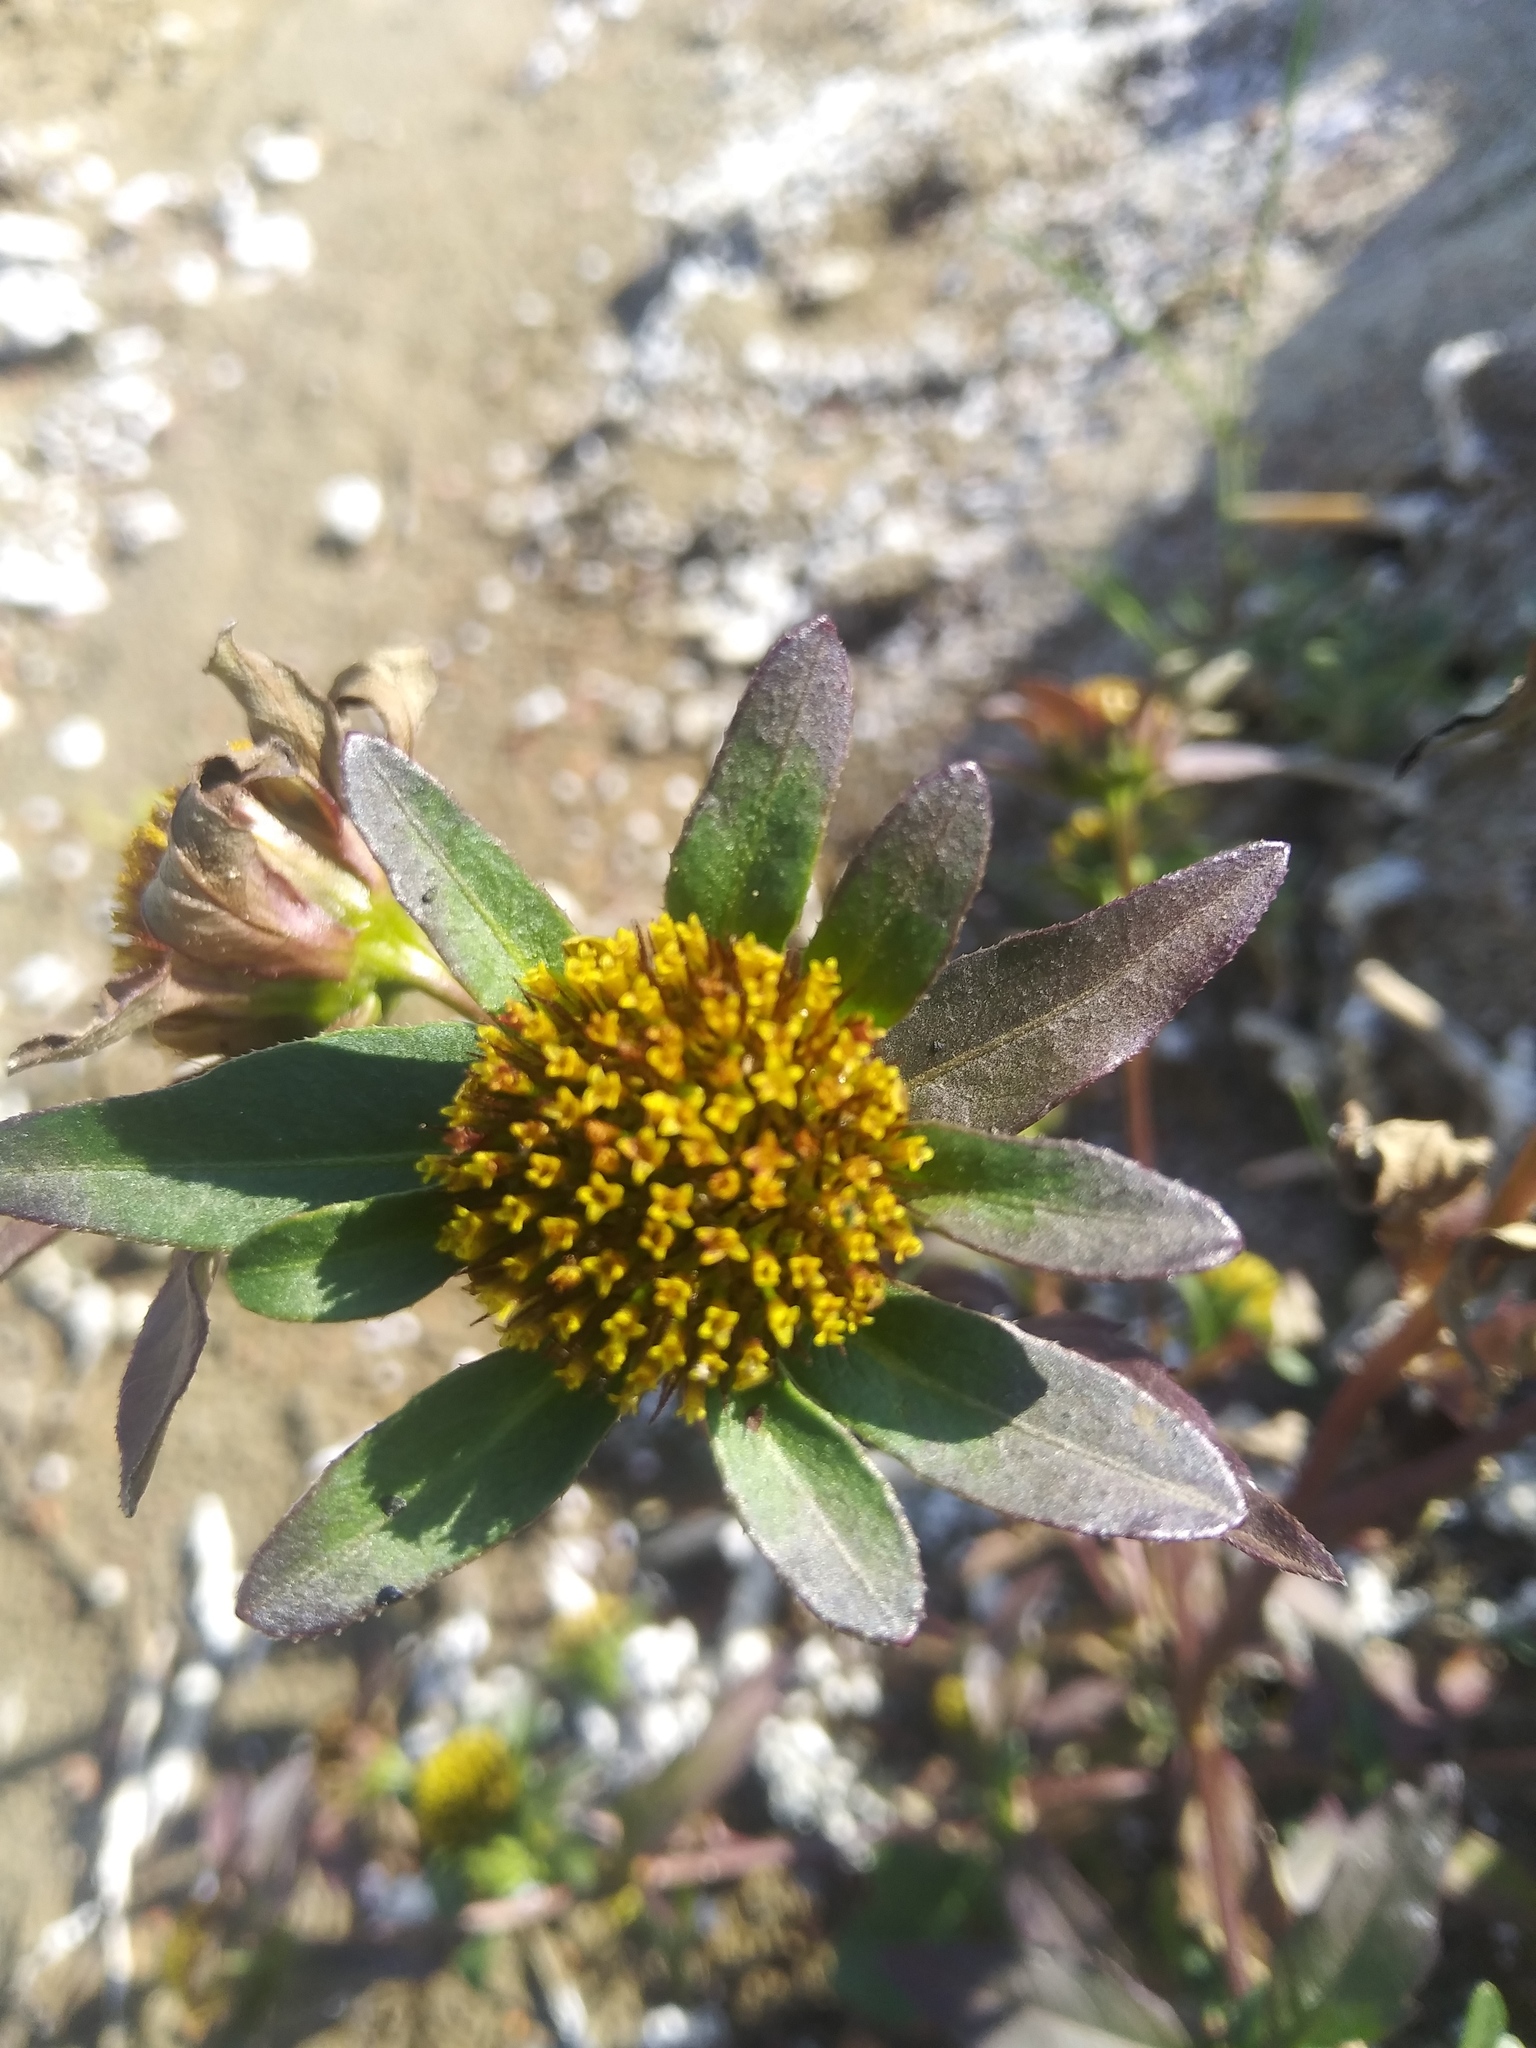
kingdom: Plantae
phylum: Tracheophyta
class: Magnoliopsida
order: Asterales
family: Asteraceae
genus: Bidens
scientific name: Bidens tripartita
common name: Trifid bur-marigold
